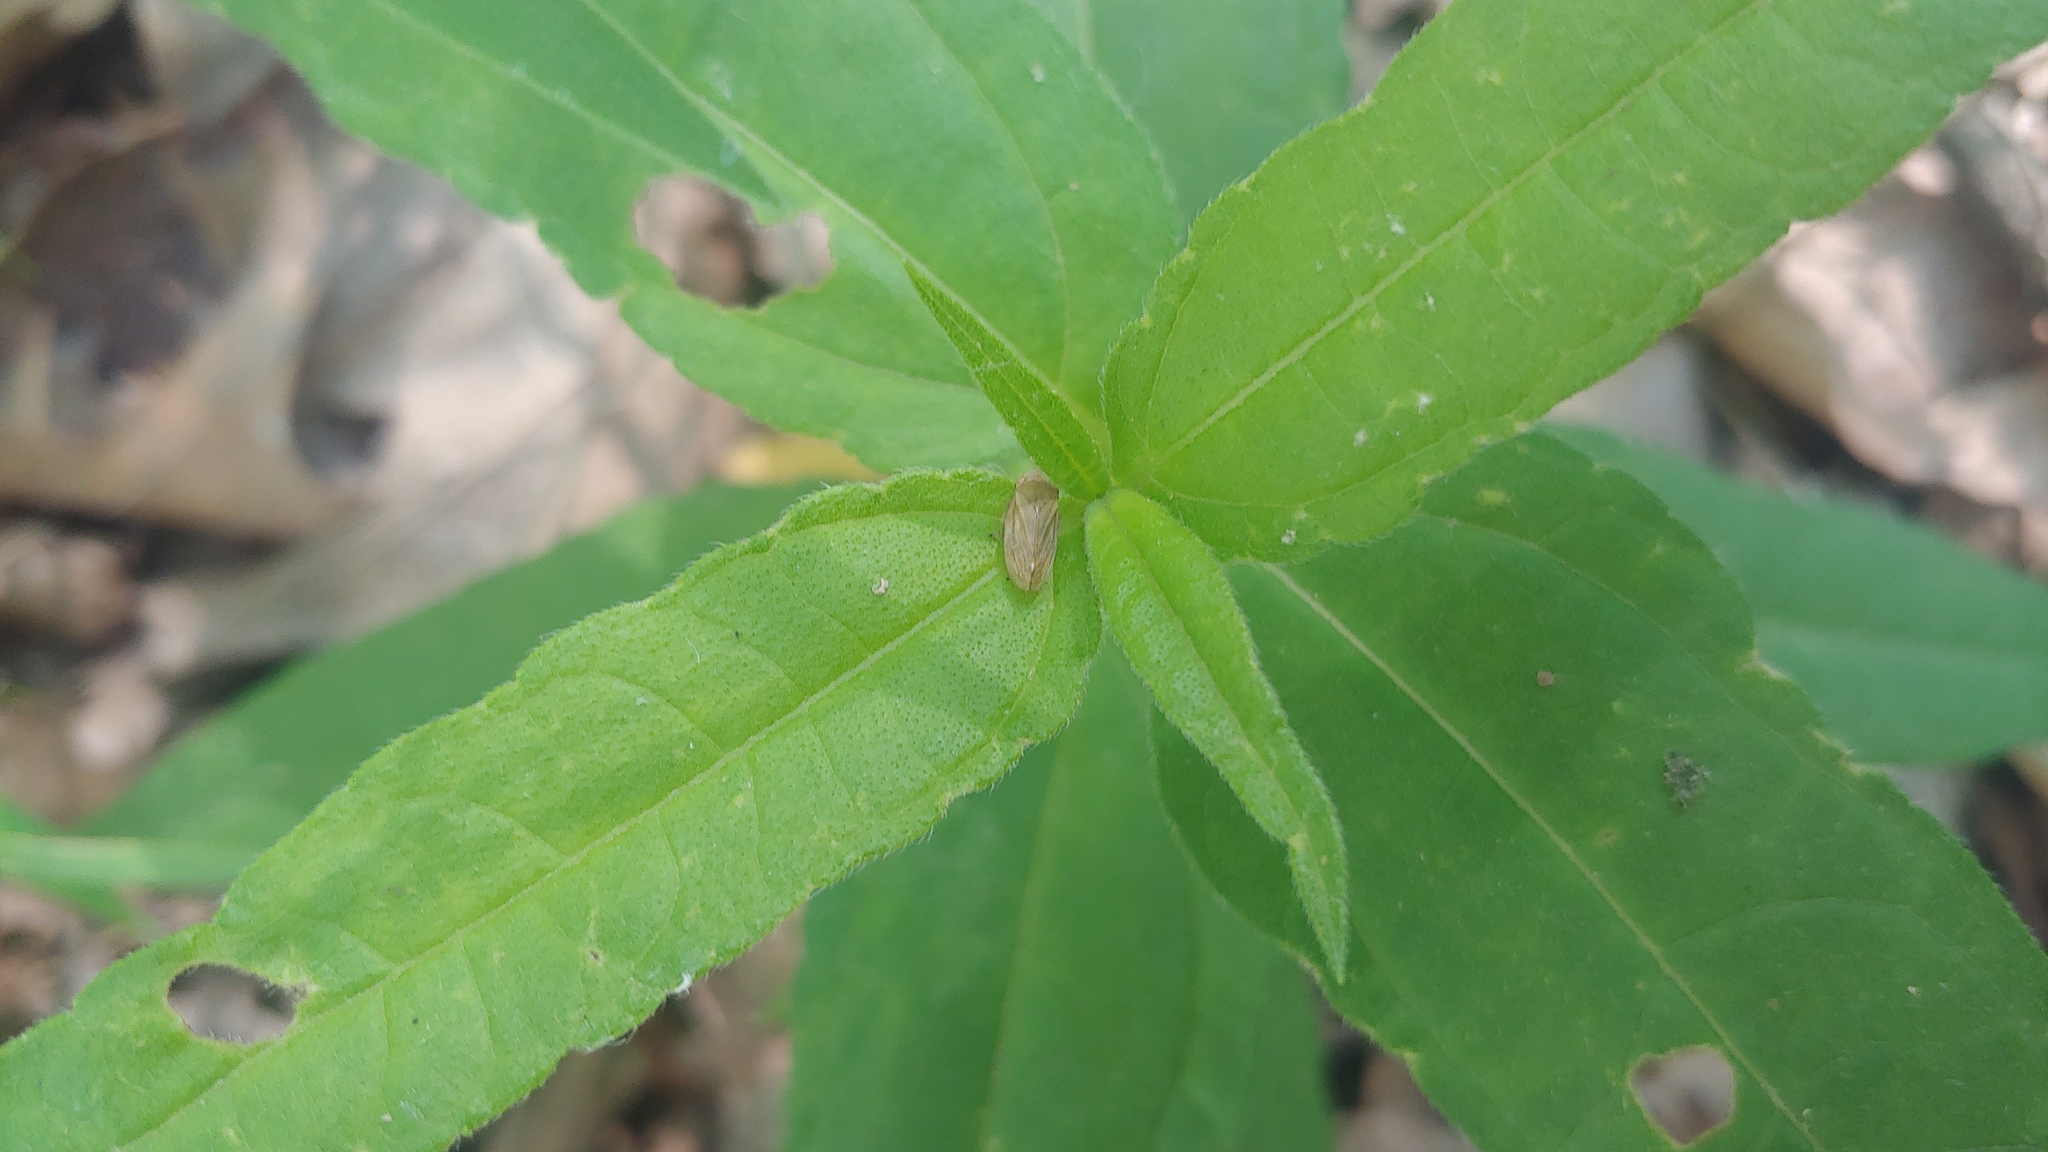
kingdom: Animalia
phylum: Arthropoda
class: Insecta
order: Hemiptera
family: Aphrophoridae
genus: Philaenus
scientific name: Philaenus spumarius
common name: Meadow spittlebug
